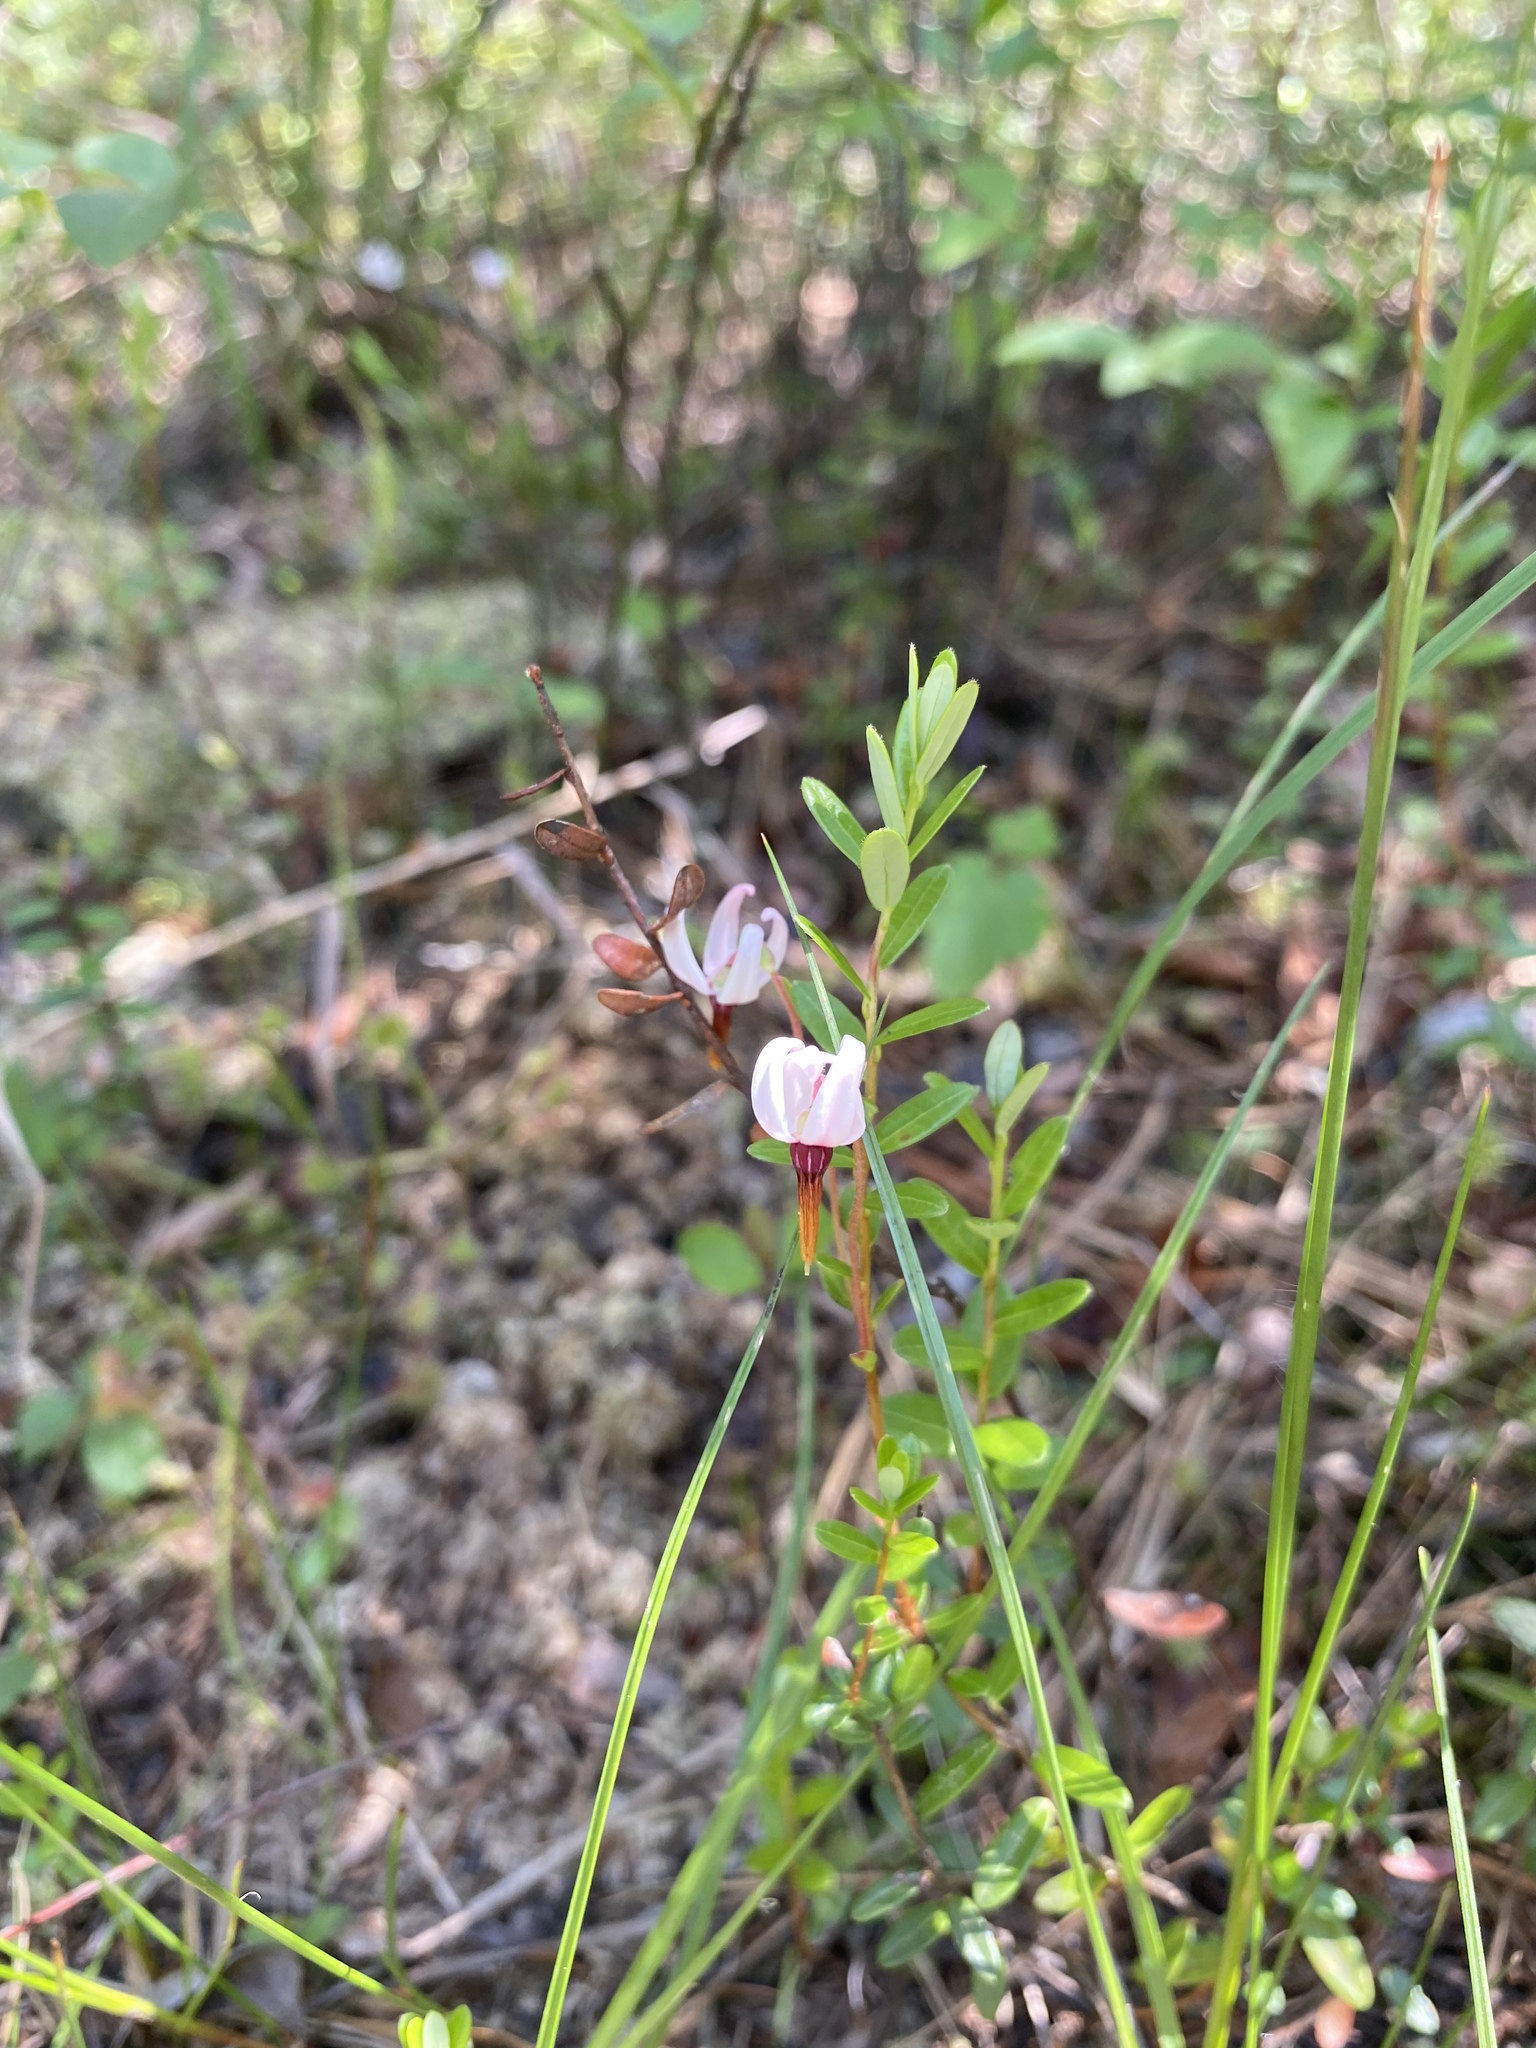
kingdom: Plantae
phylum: Tracheophyta
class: Magnoliopsida
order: Ericales
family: Ericaceae
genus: Vaccinium
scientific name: Vaccinium macrocarpon
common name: American cranberry
